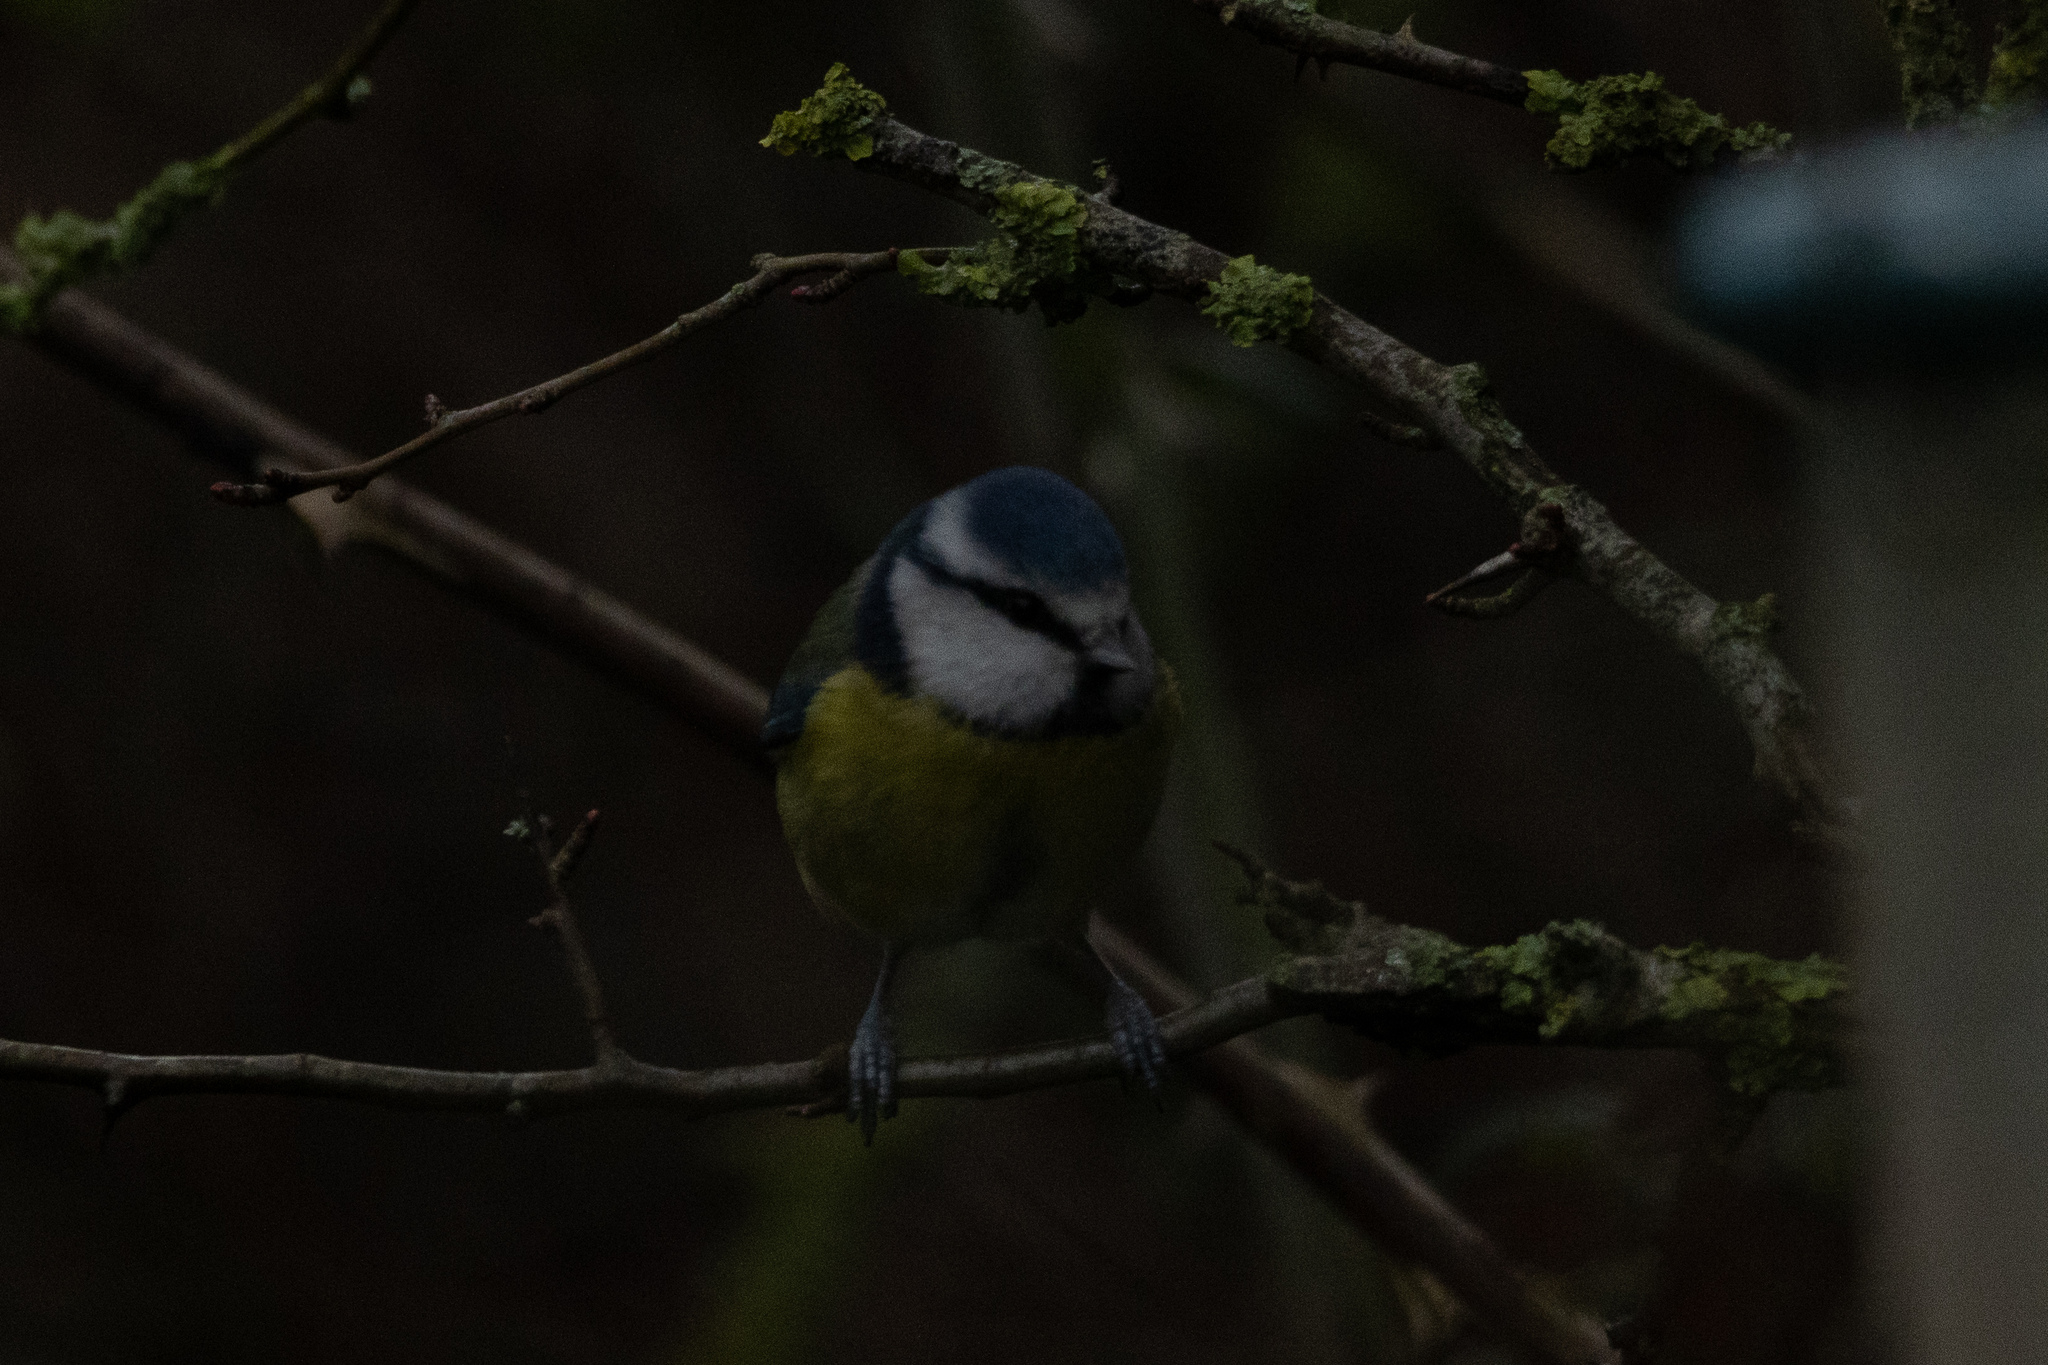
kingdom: Animalia
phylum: Chordata
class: Aves
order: Passeriformes
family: Paridae
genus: Cyanistes
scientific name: Cyanistes caeruleus
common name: Eurasian blue tit
